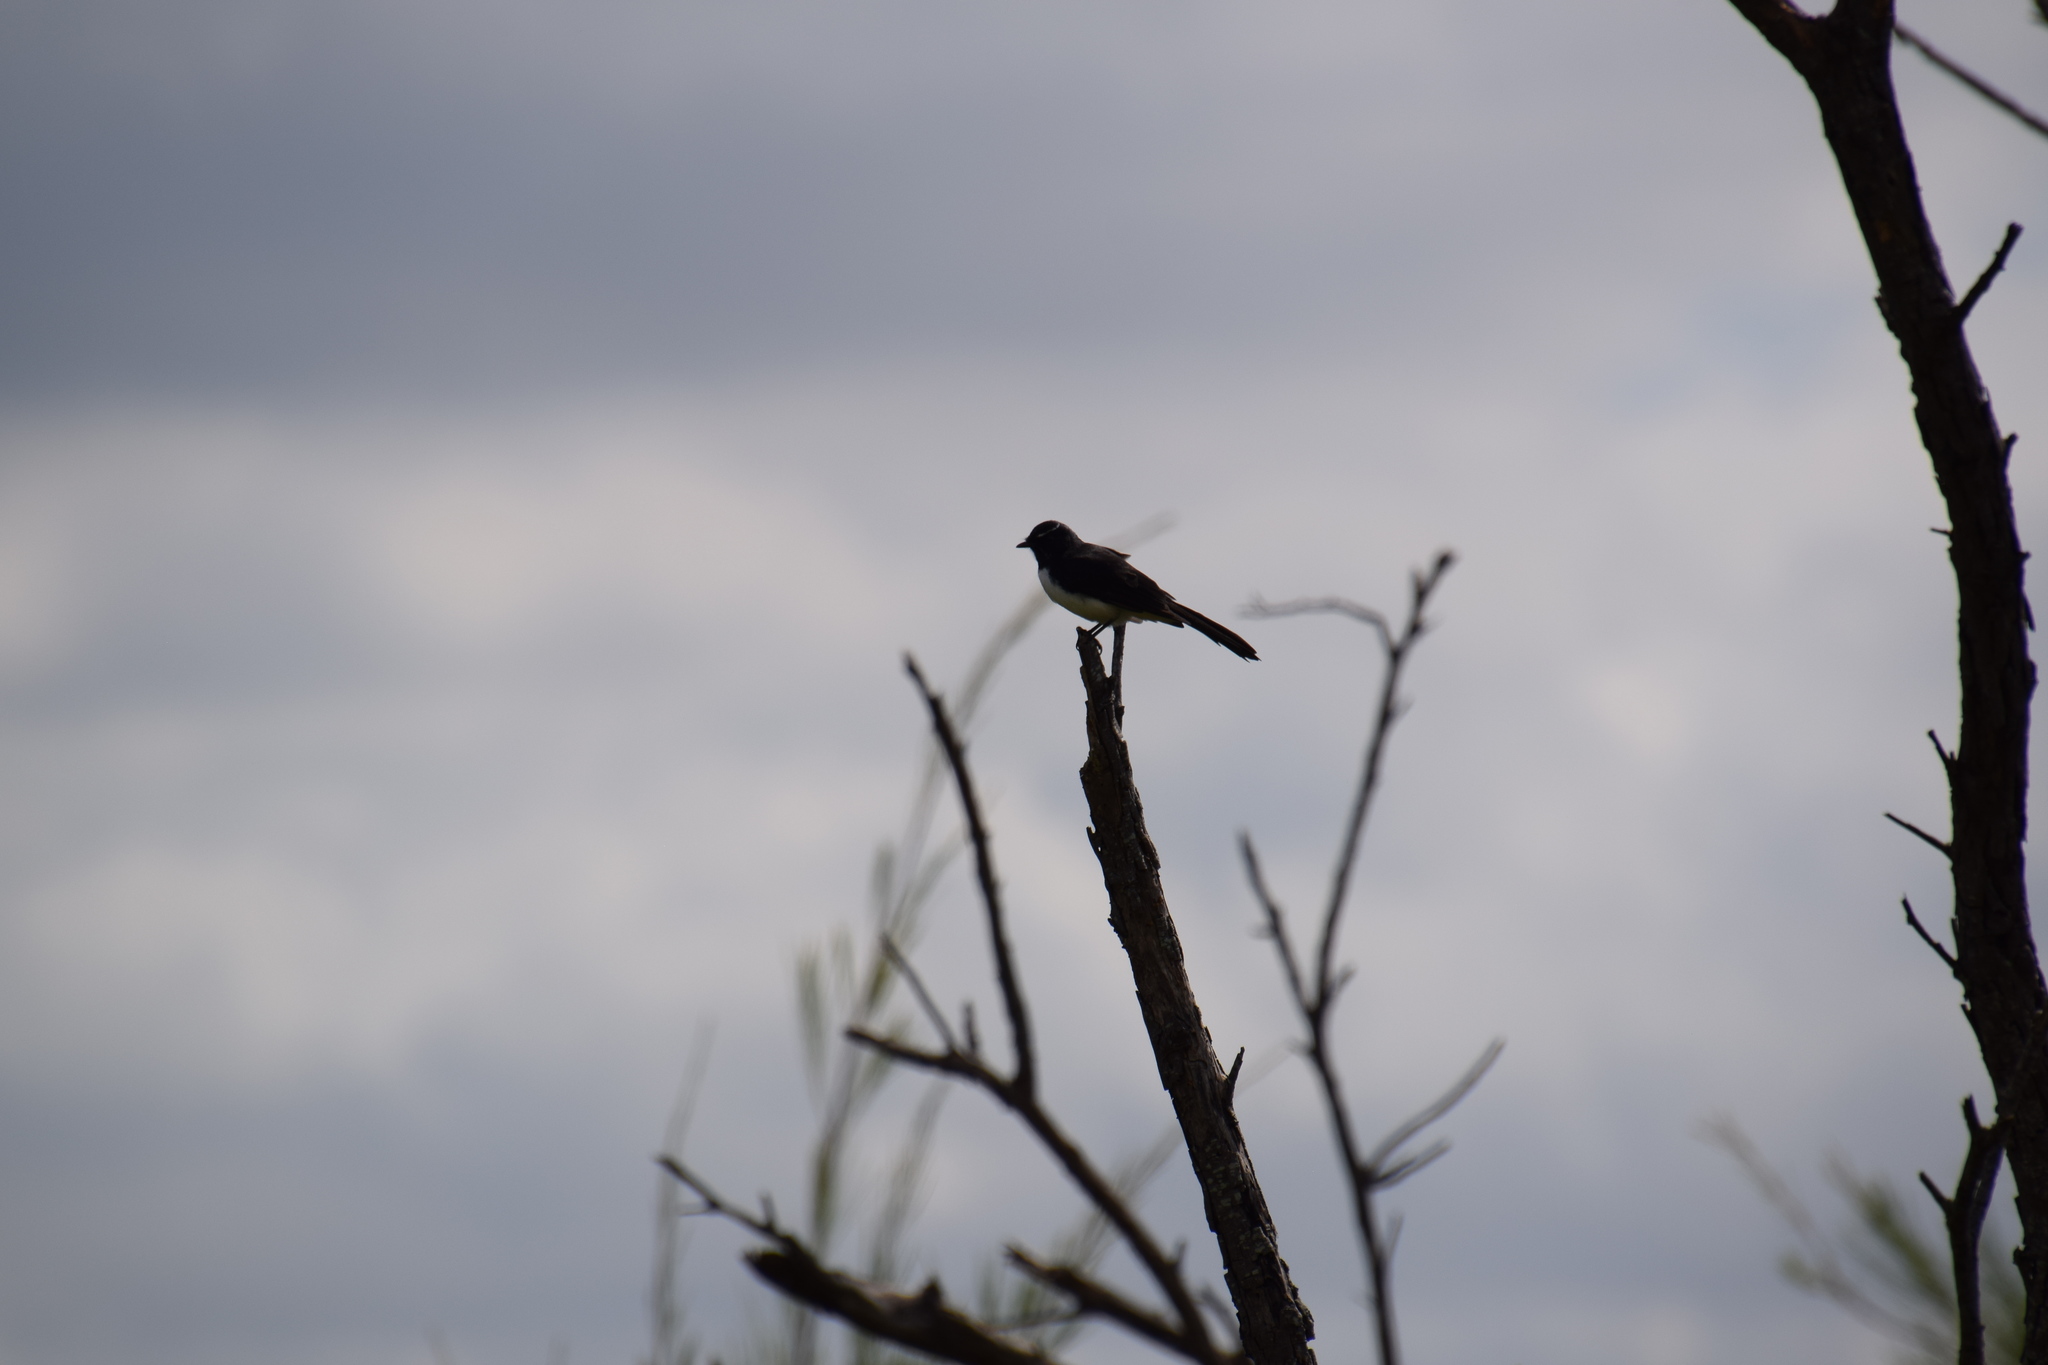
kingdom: Animalia
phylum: Chordata
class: Aves
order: Passeriformes
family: Rhipiduridae
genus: Rhipidura
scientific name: Rhipidura leucophrys
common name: Willie wagtail
